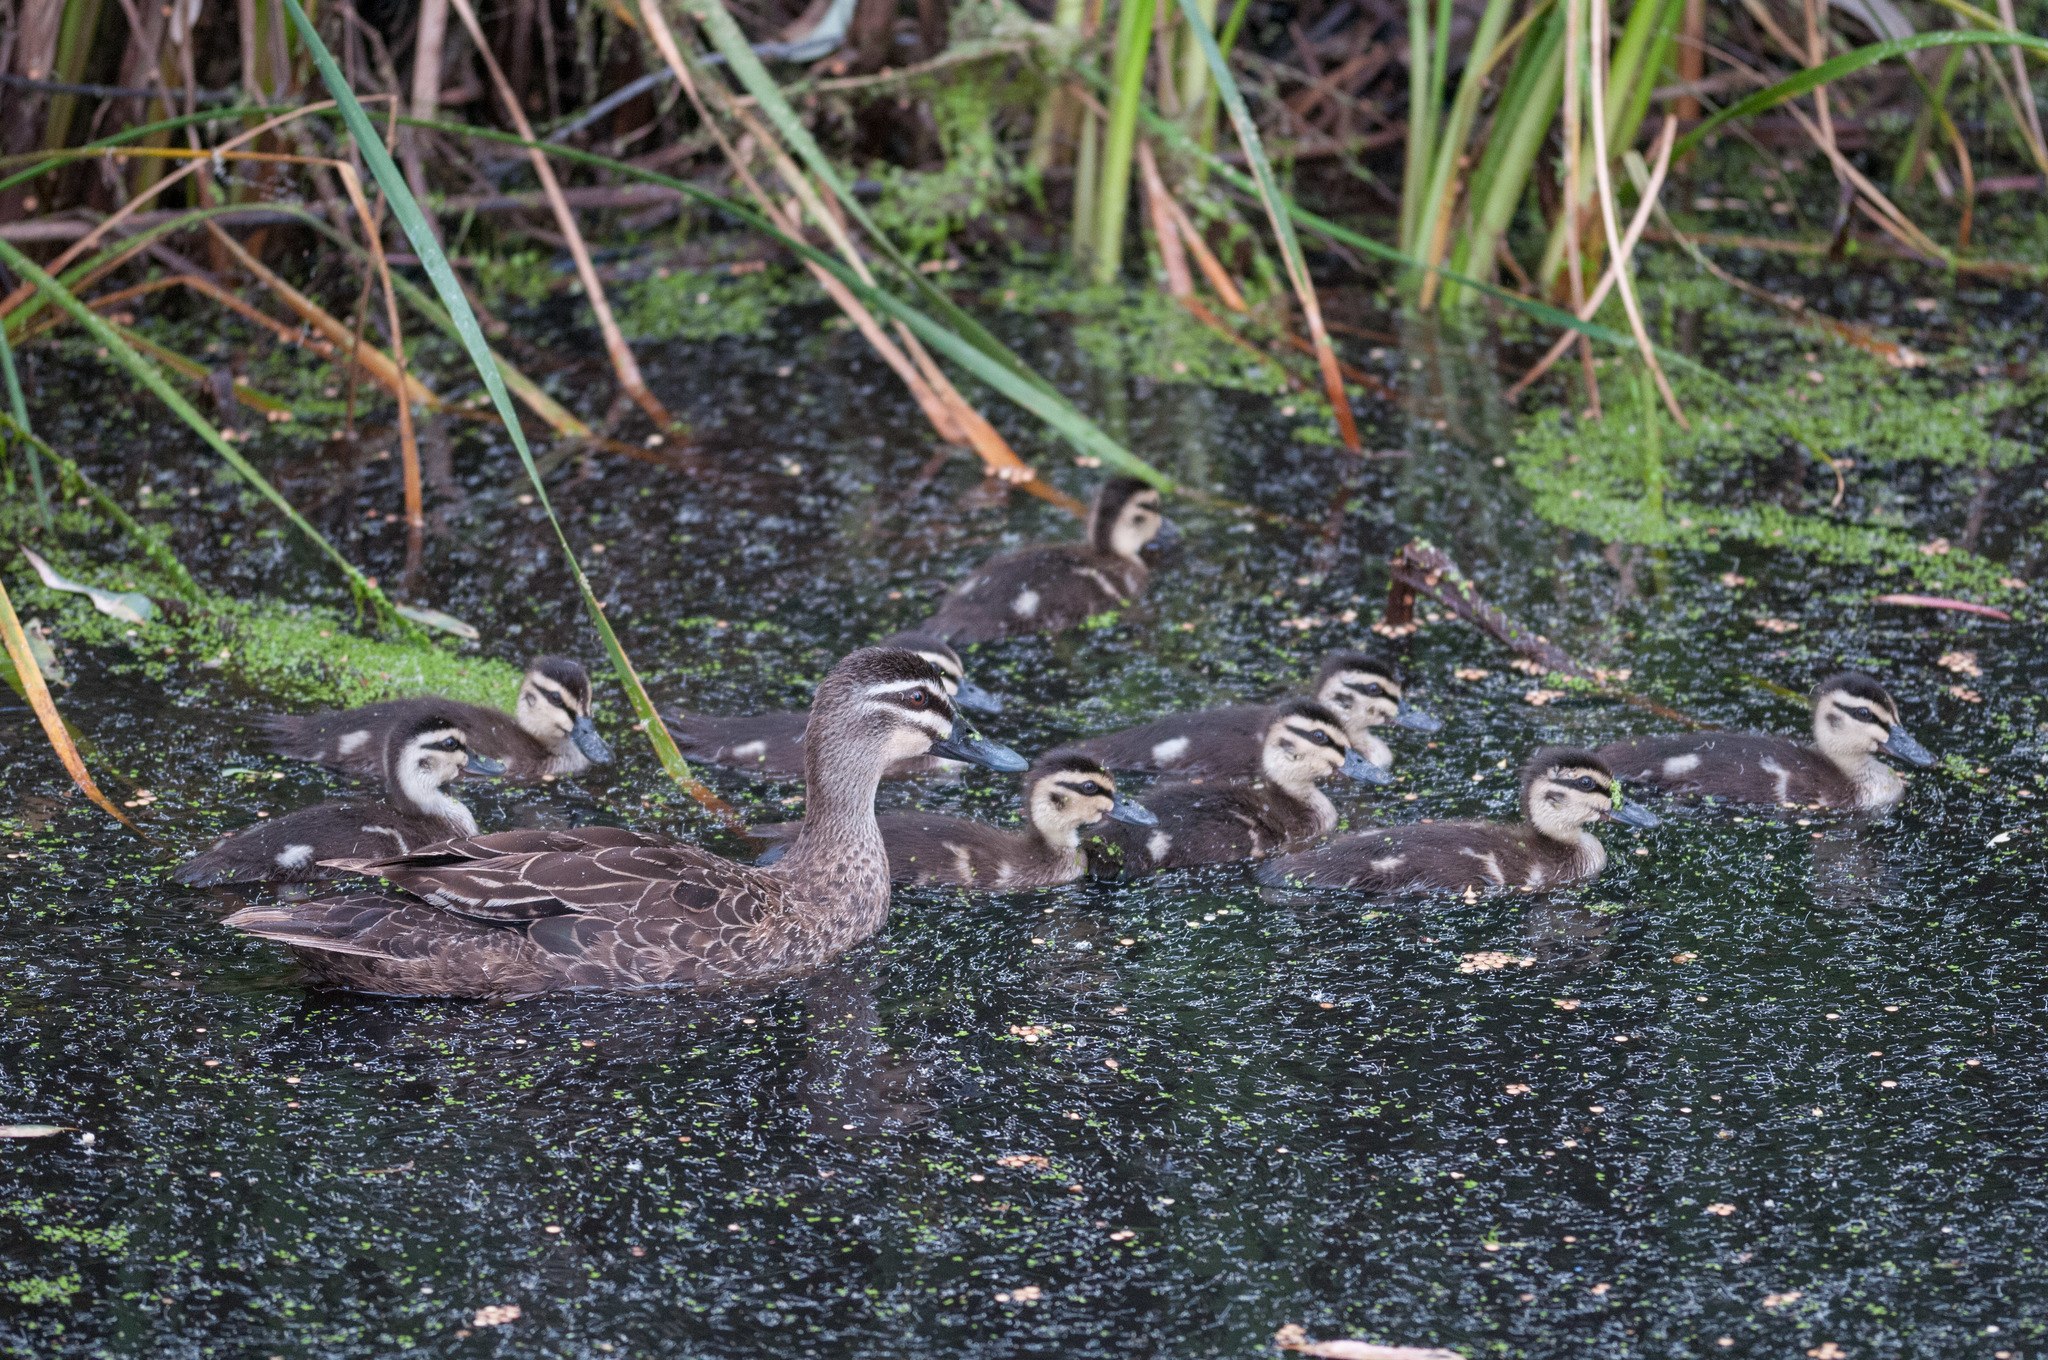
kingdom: Animalia
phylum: Chordata
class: Aves
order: Anseriformes
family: Anatidae
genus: Anas
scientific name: Anas superciliosa
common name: Pacific black duck
